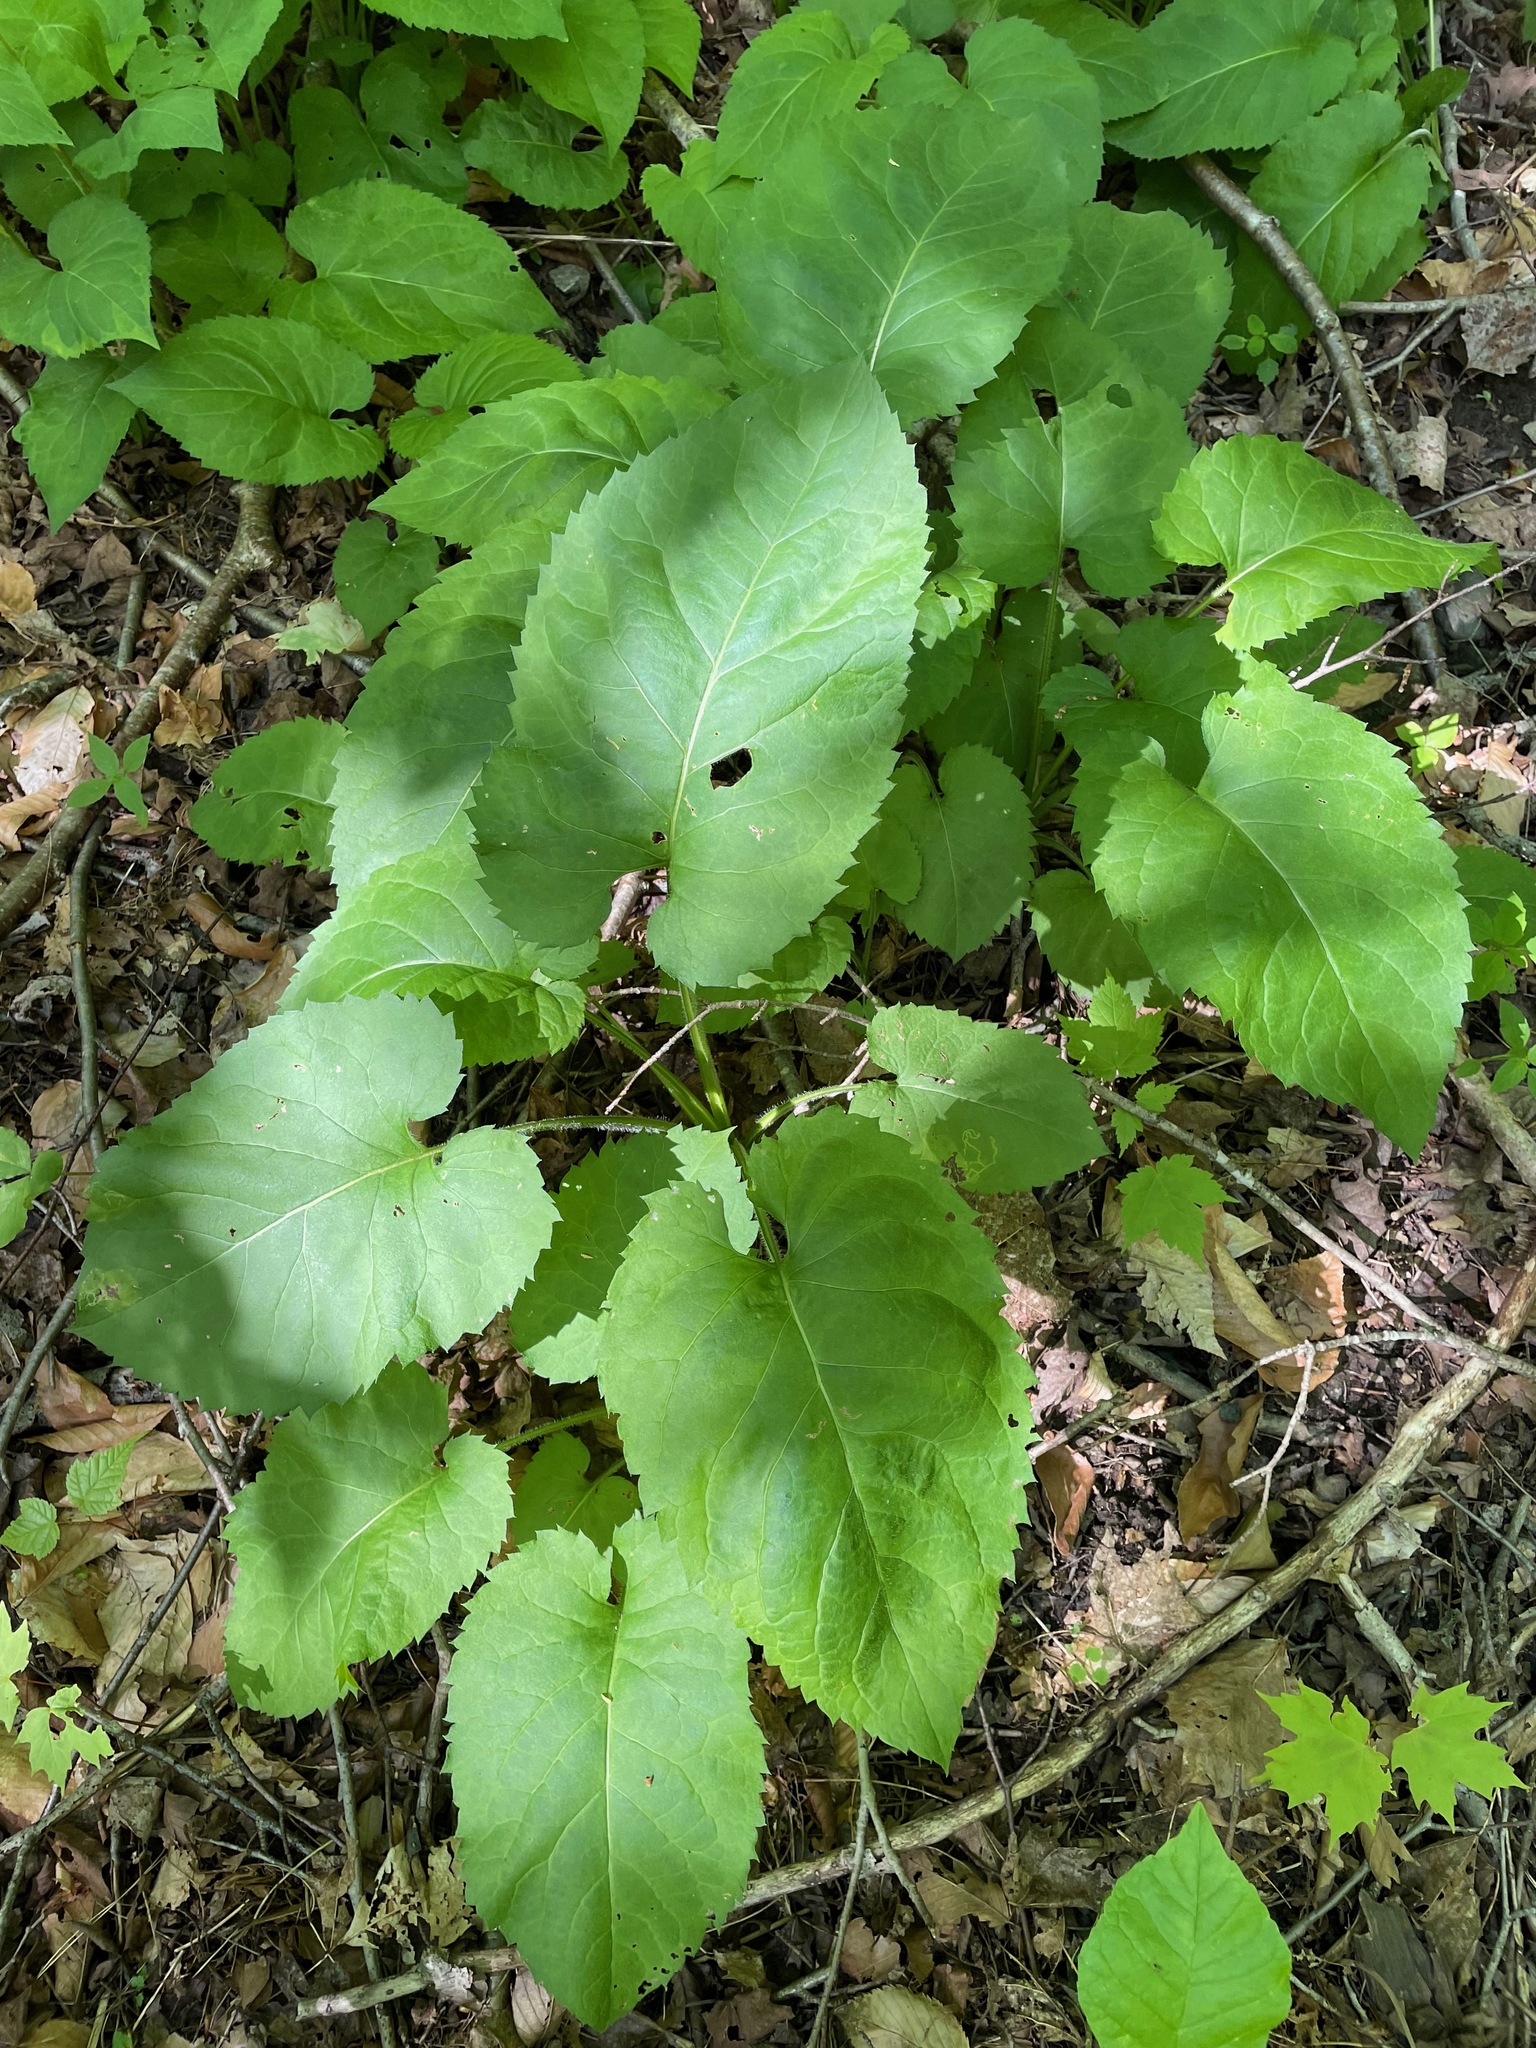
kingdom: Plantae
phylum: Tracheophyta
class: Magnoliopsida
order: Asterales
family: Asteraceae
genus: Eurybia
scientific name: Eurybia macrophylla
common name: Big-leaved aster
